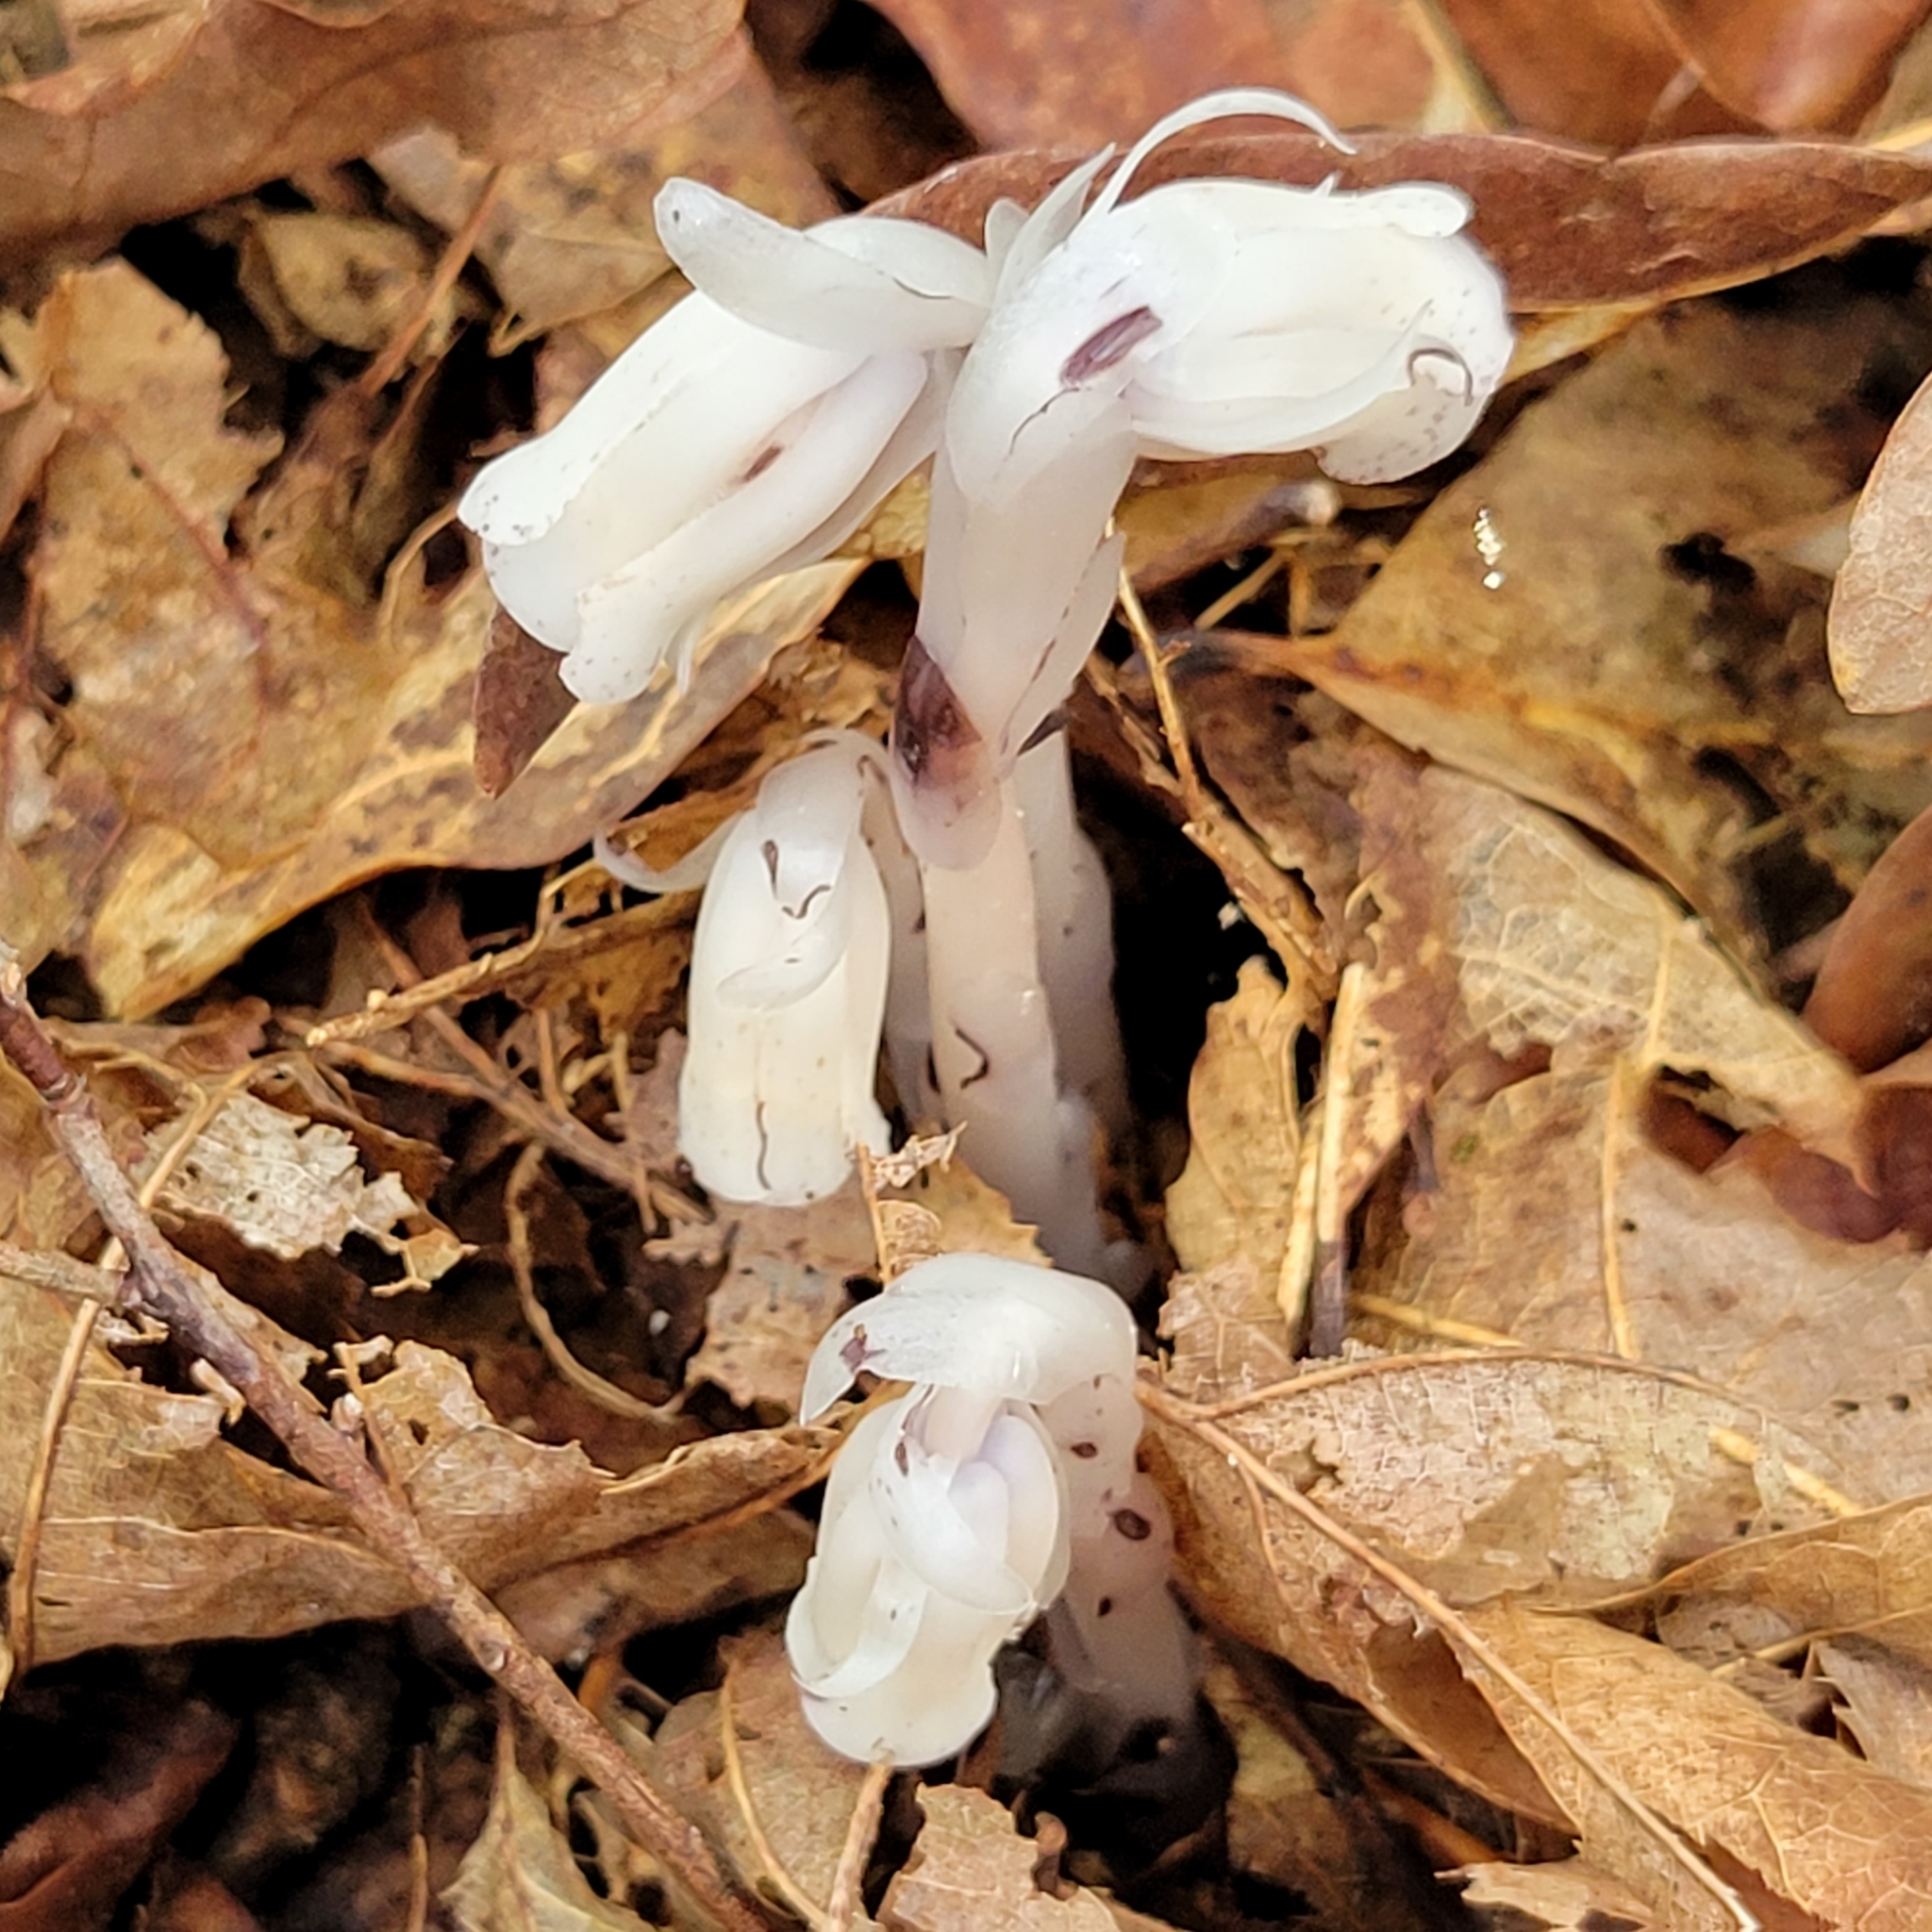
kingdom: Plantae
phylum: Tracheophyta
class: Magnoliopsida
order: Ericales
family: Ericaceae
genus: Monotropa
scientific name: Monotropa uniflora
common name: Convulsion root
